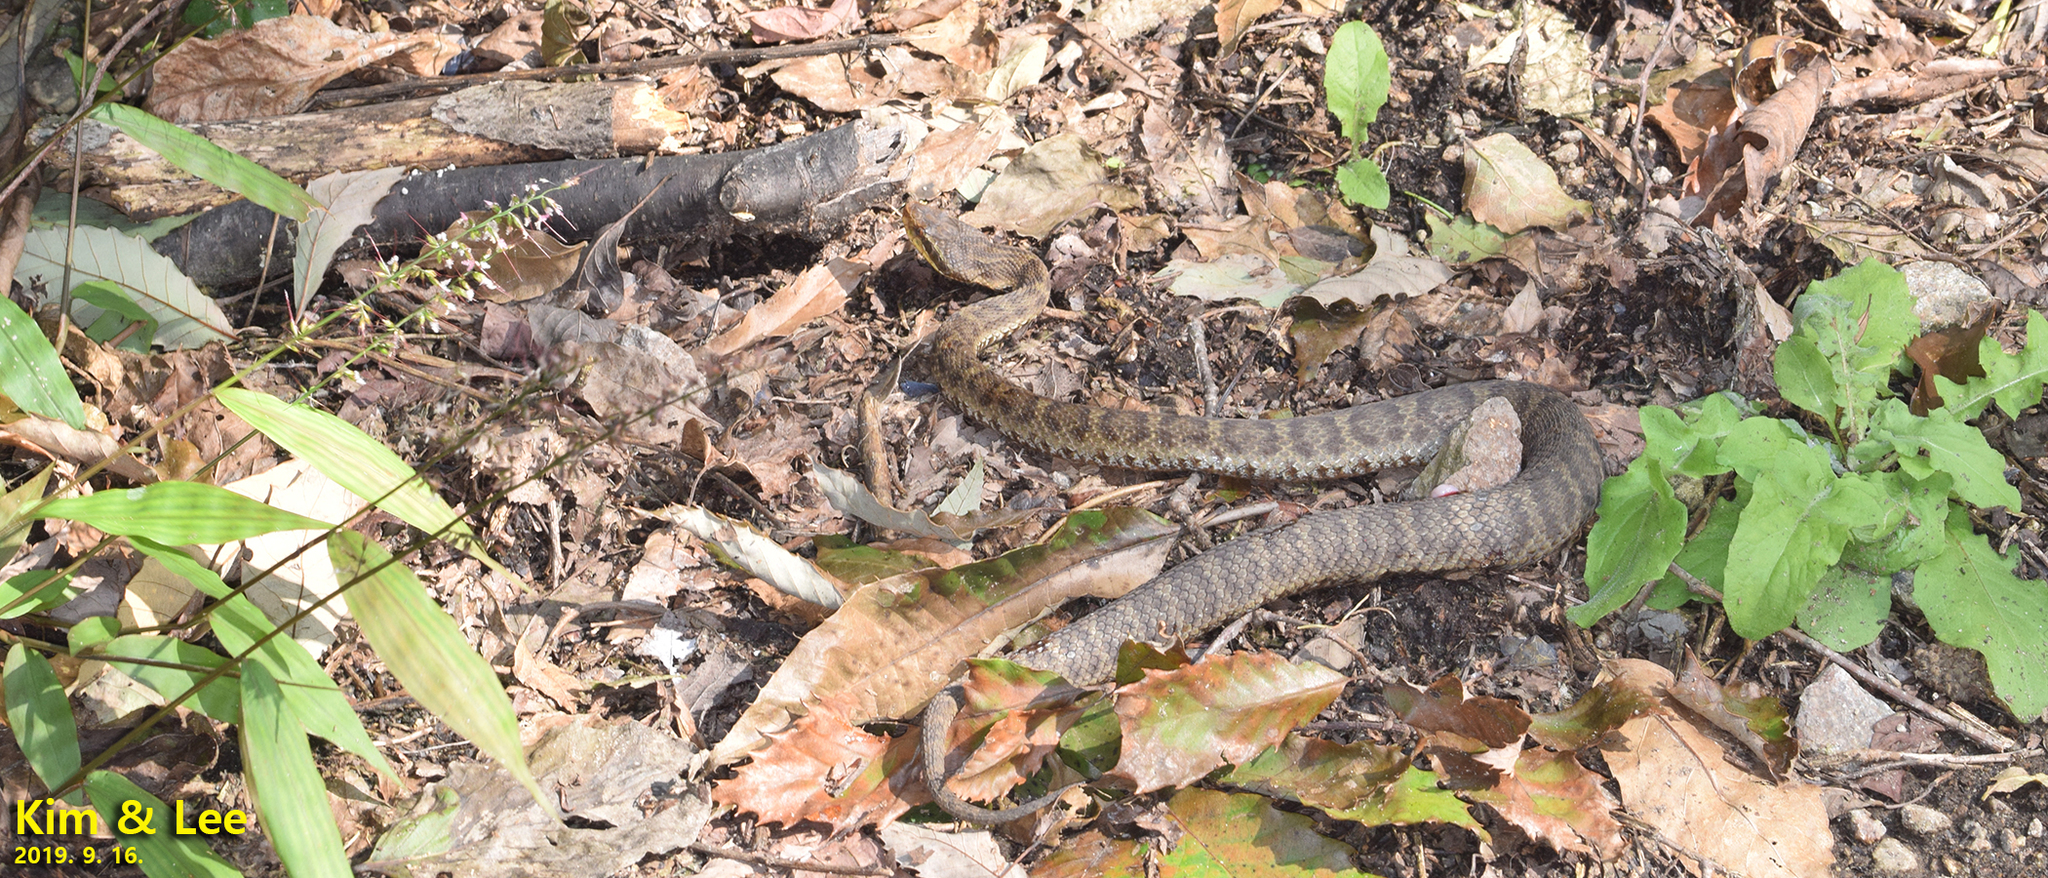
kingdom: Animalia
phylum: Chordata
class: Squamata
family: Viperidae
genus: Gloydius
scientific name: Gloydius ussuriensis
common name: Ussuri mamushi
